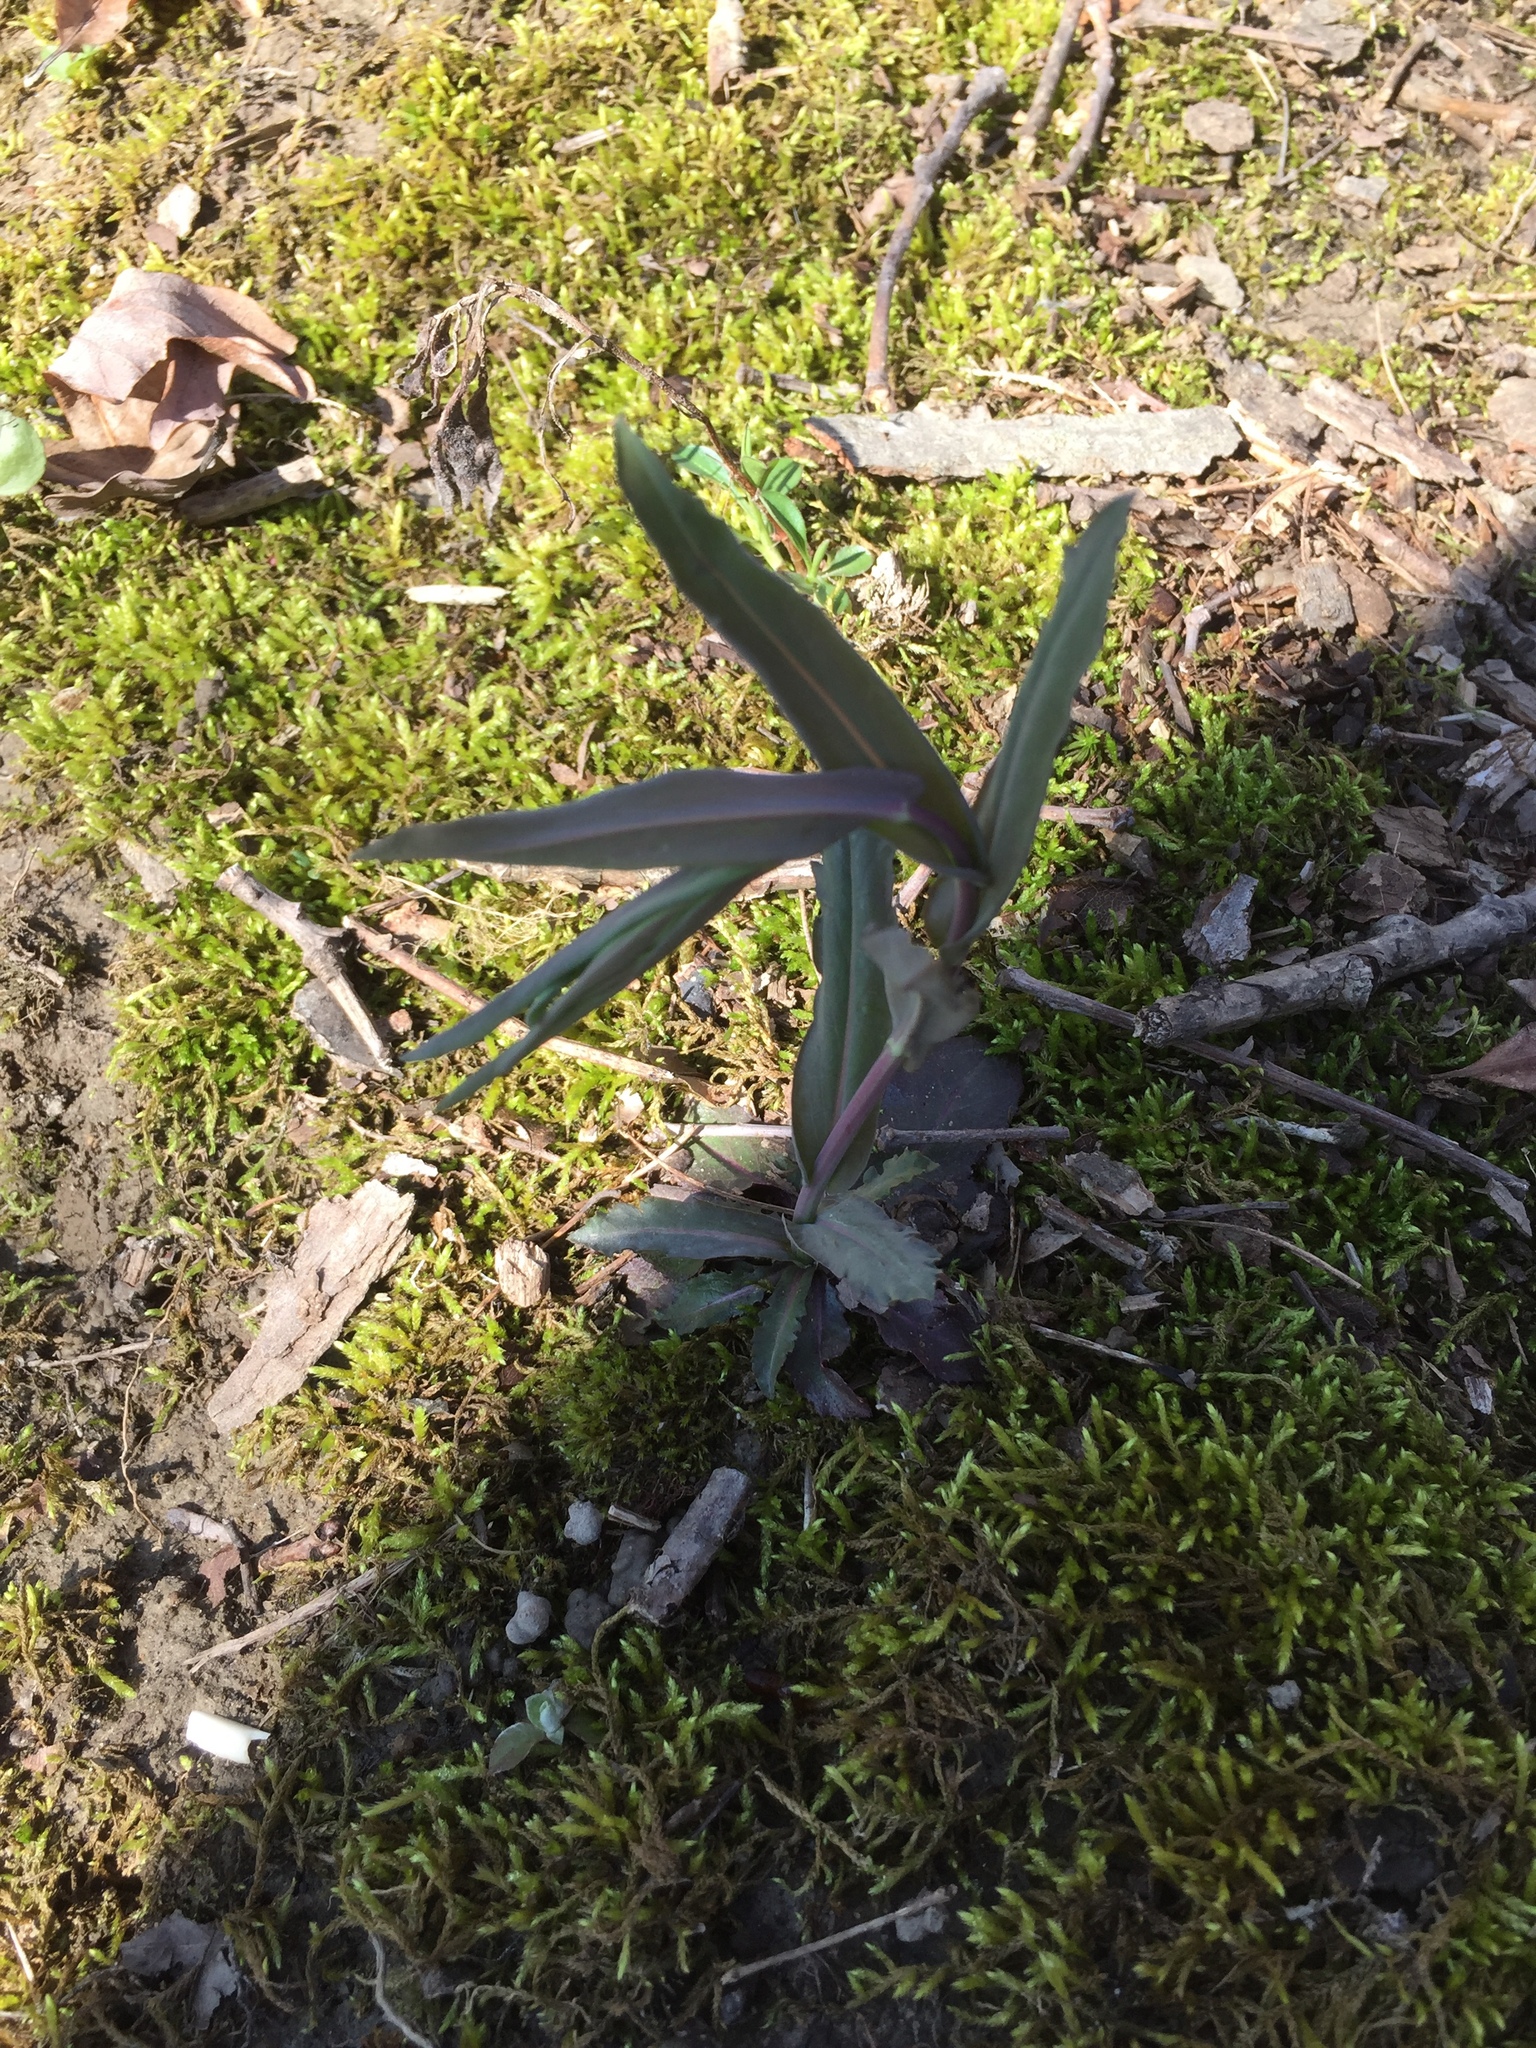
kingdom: Plantae
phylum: Tracheophyta
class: Magnoliopsida
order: Brassicales
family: Brassicaceae
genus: Borodinia
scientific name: Borodinia laevigata
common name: Smooth rockcress
